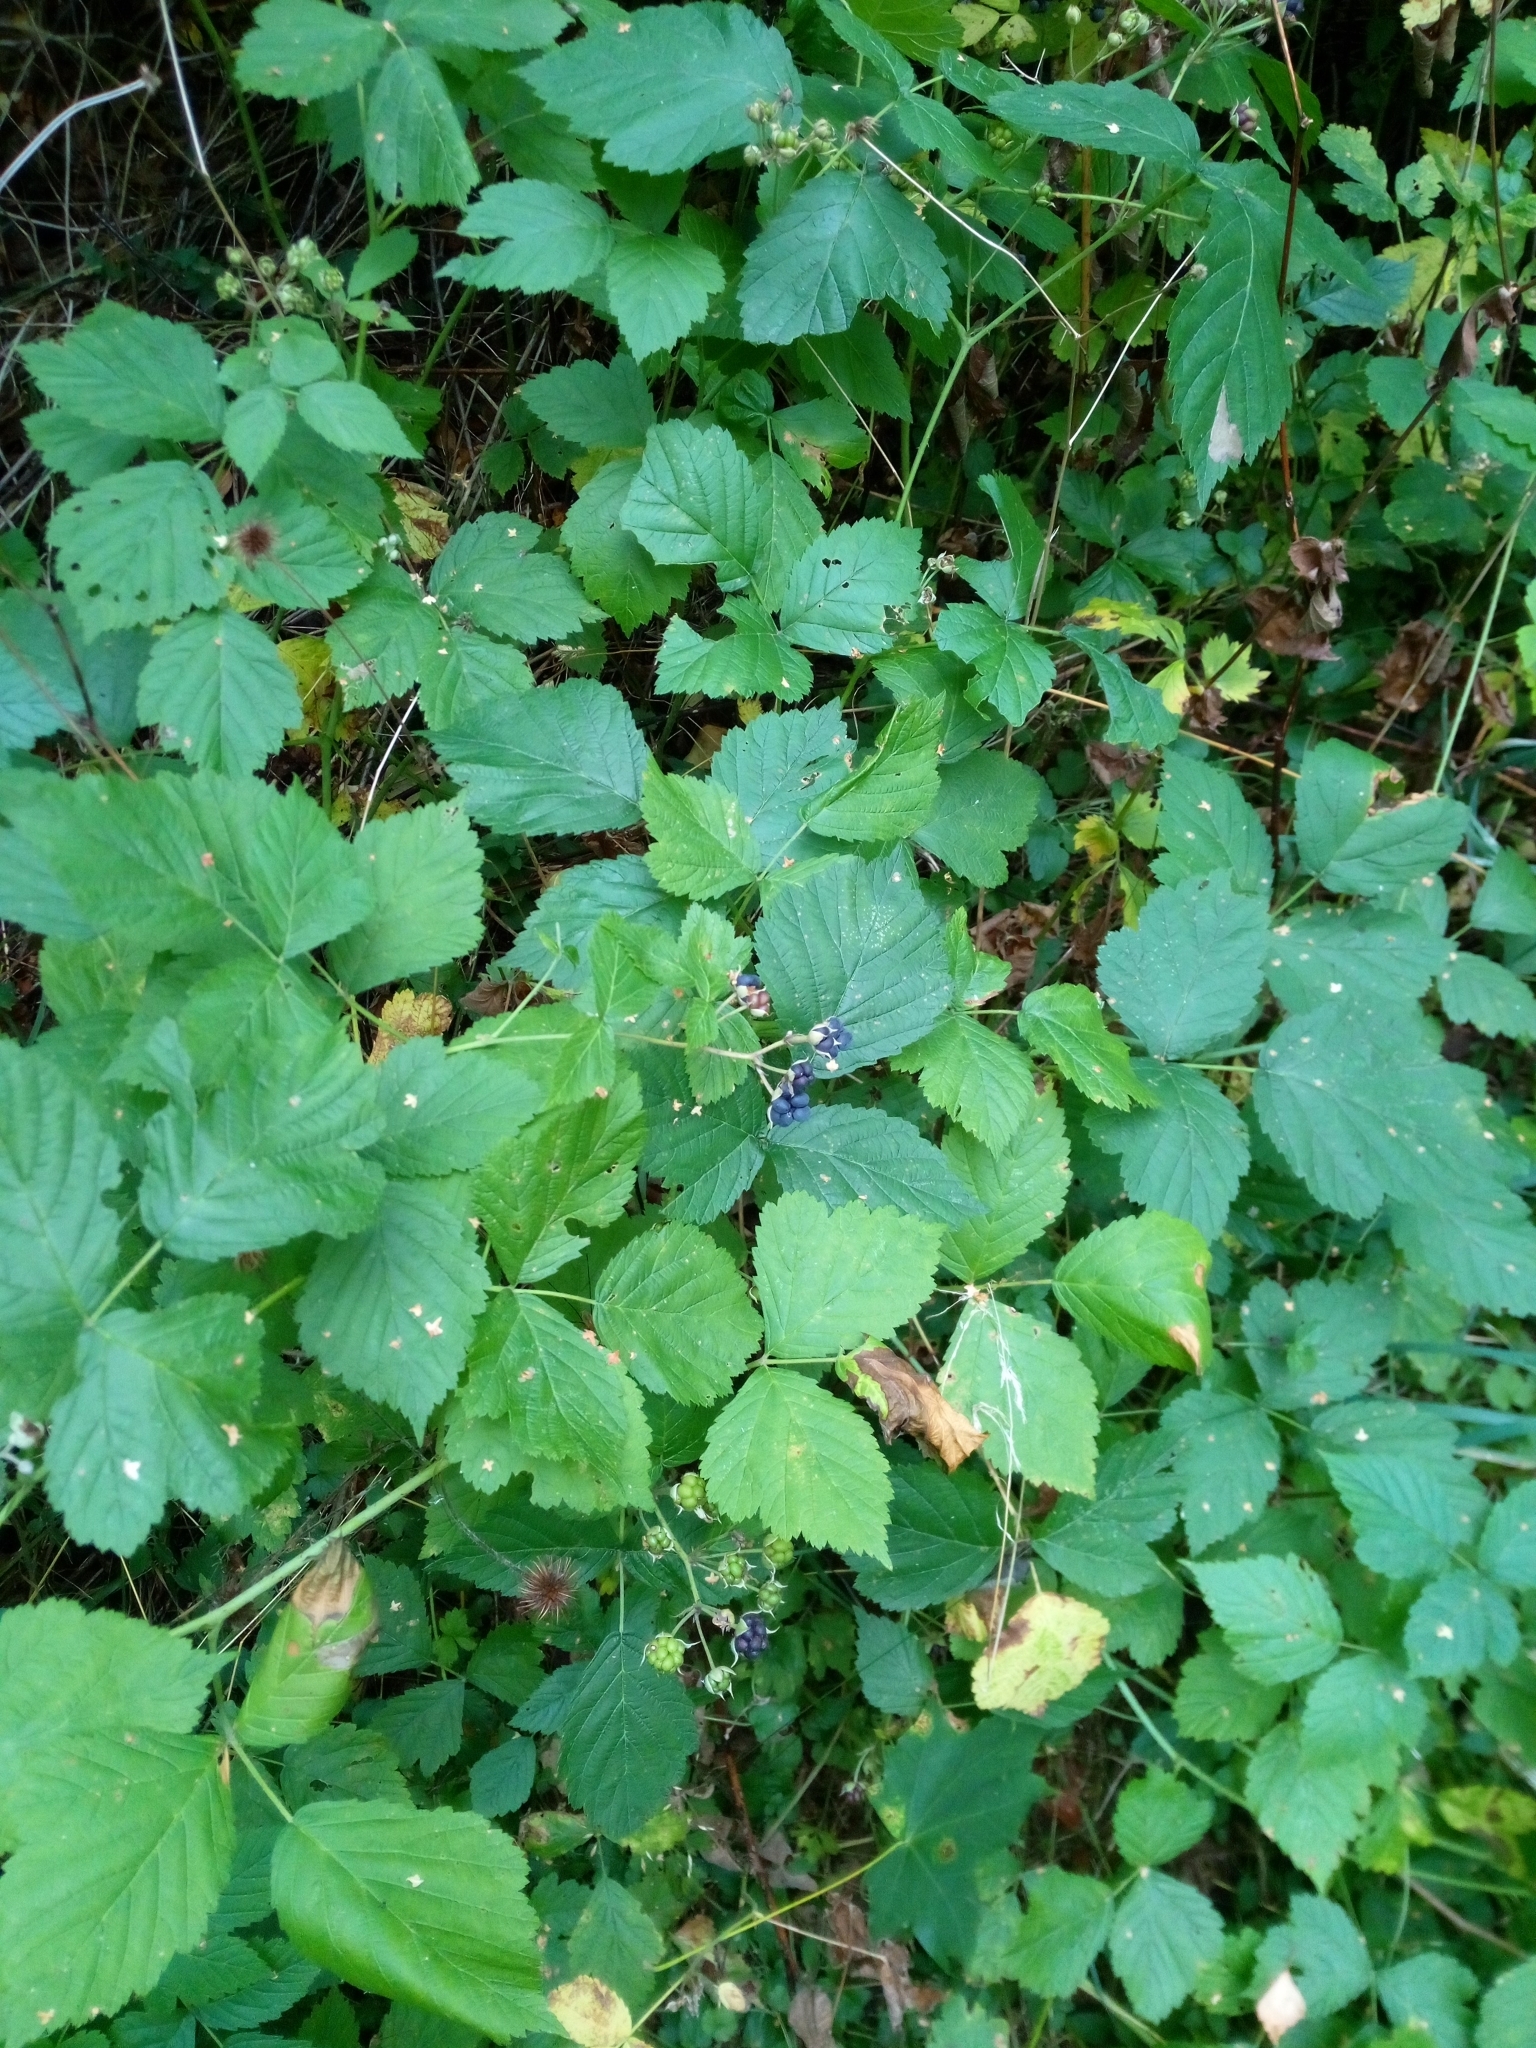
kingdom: Plantae
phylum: Tracheophyta
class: Magnoliopsida
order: Rosales
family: Rosaceae
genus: Rubus
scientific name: Rubus caesius
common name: Dewberry
